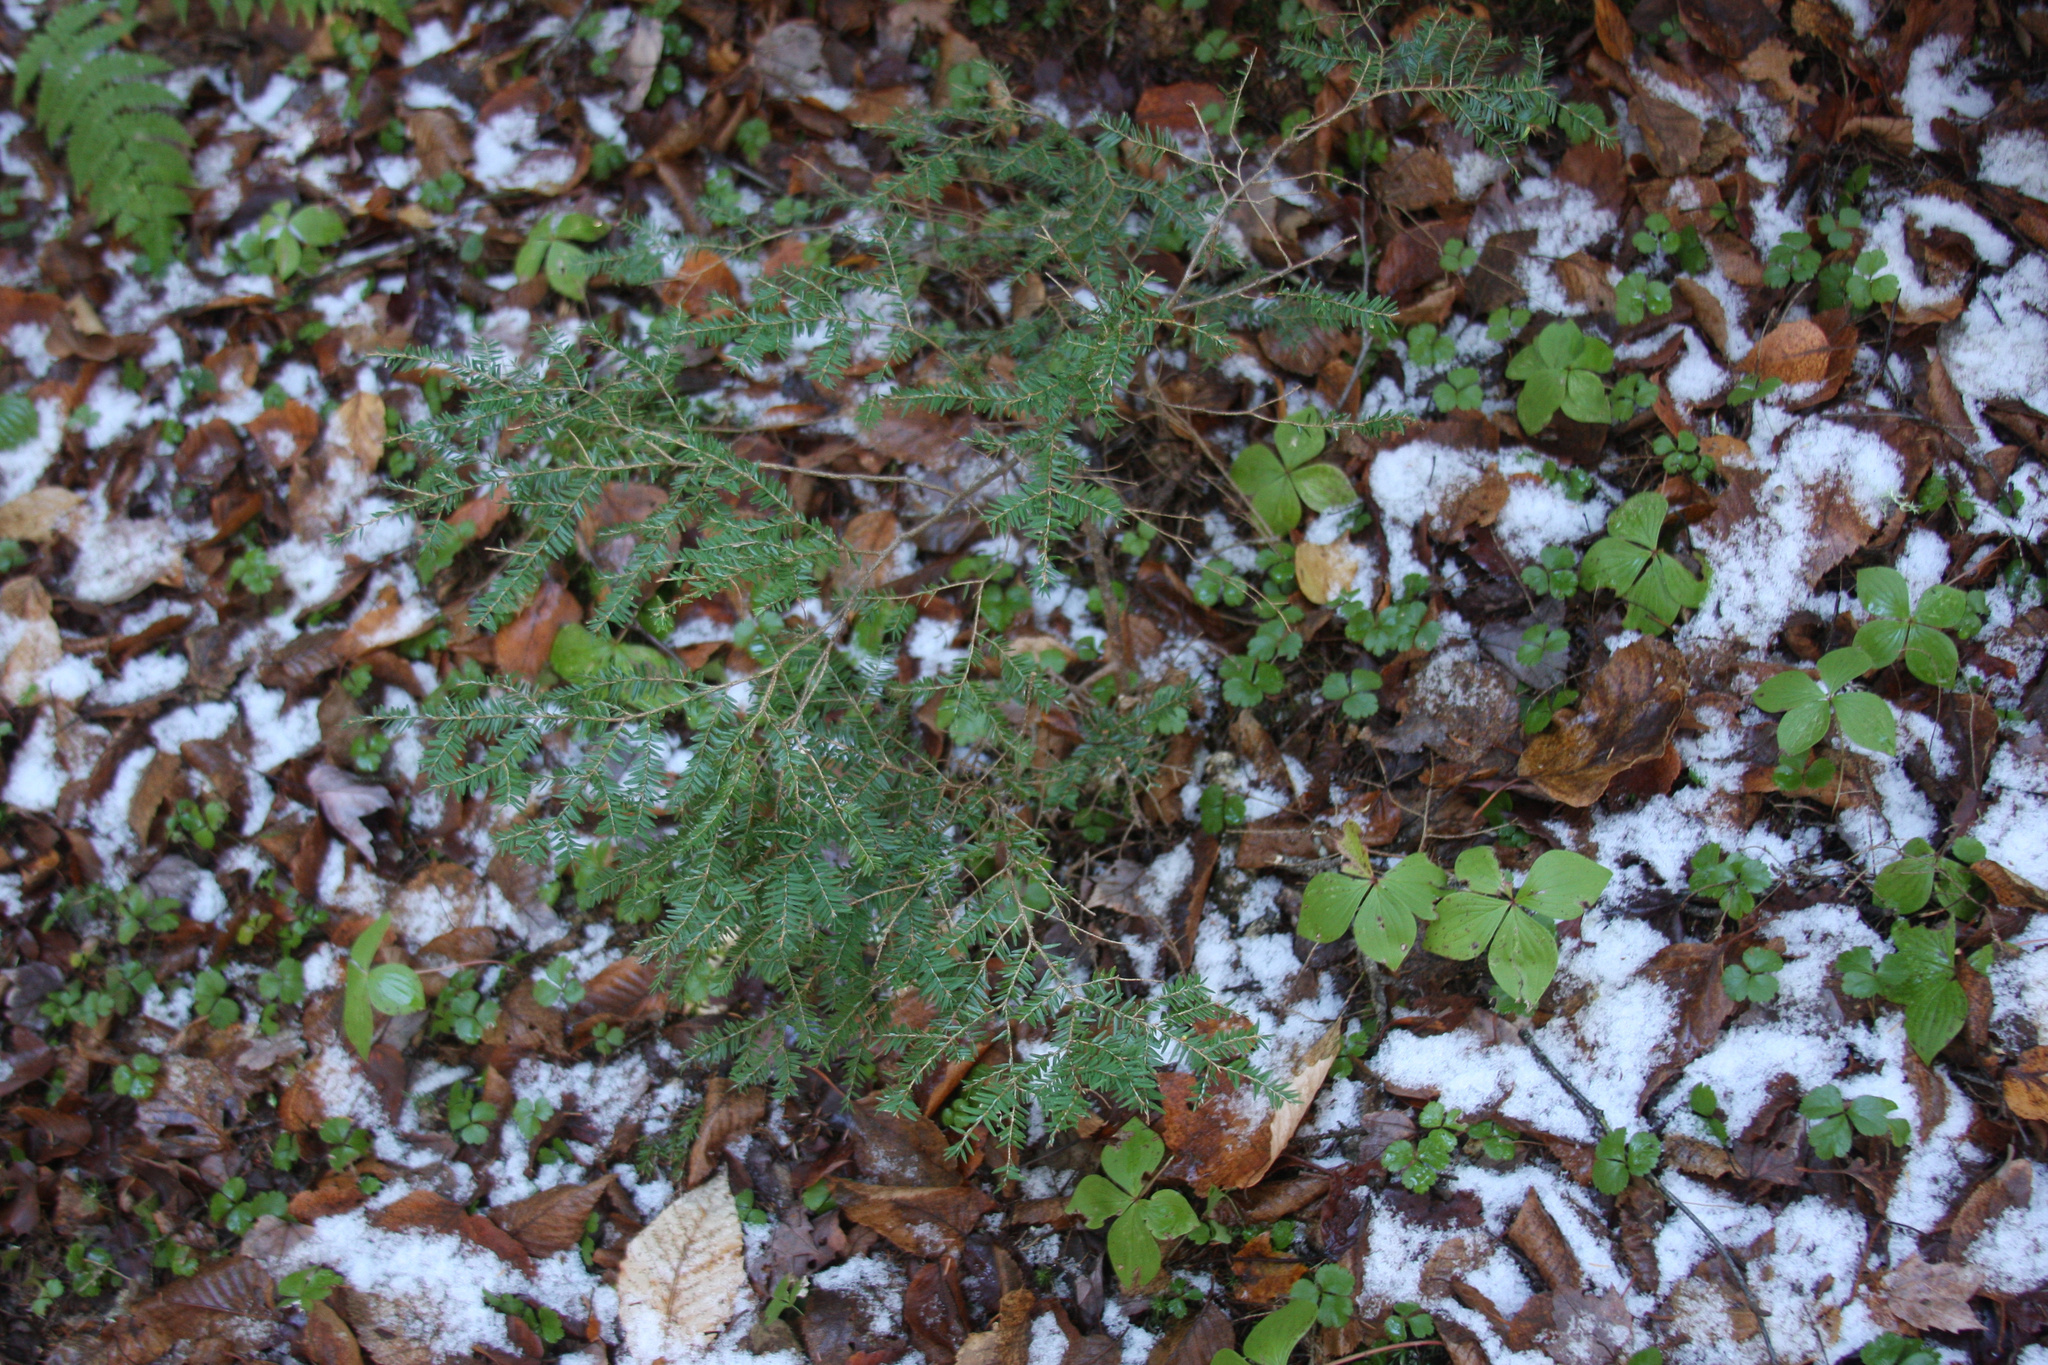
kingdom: Plantae
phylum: Tracheophyta
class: Pinopsida
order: Pinales
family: Pinaceae
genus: Tsuga
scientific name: Tsuga canadensis
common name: Eastern hemlock
